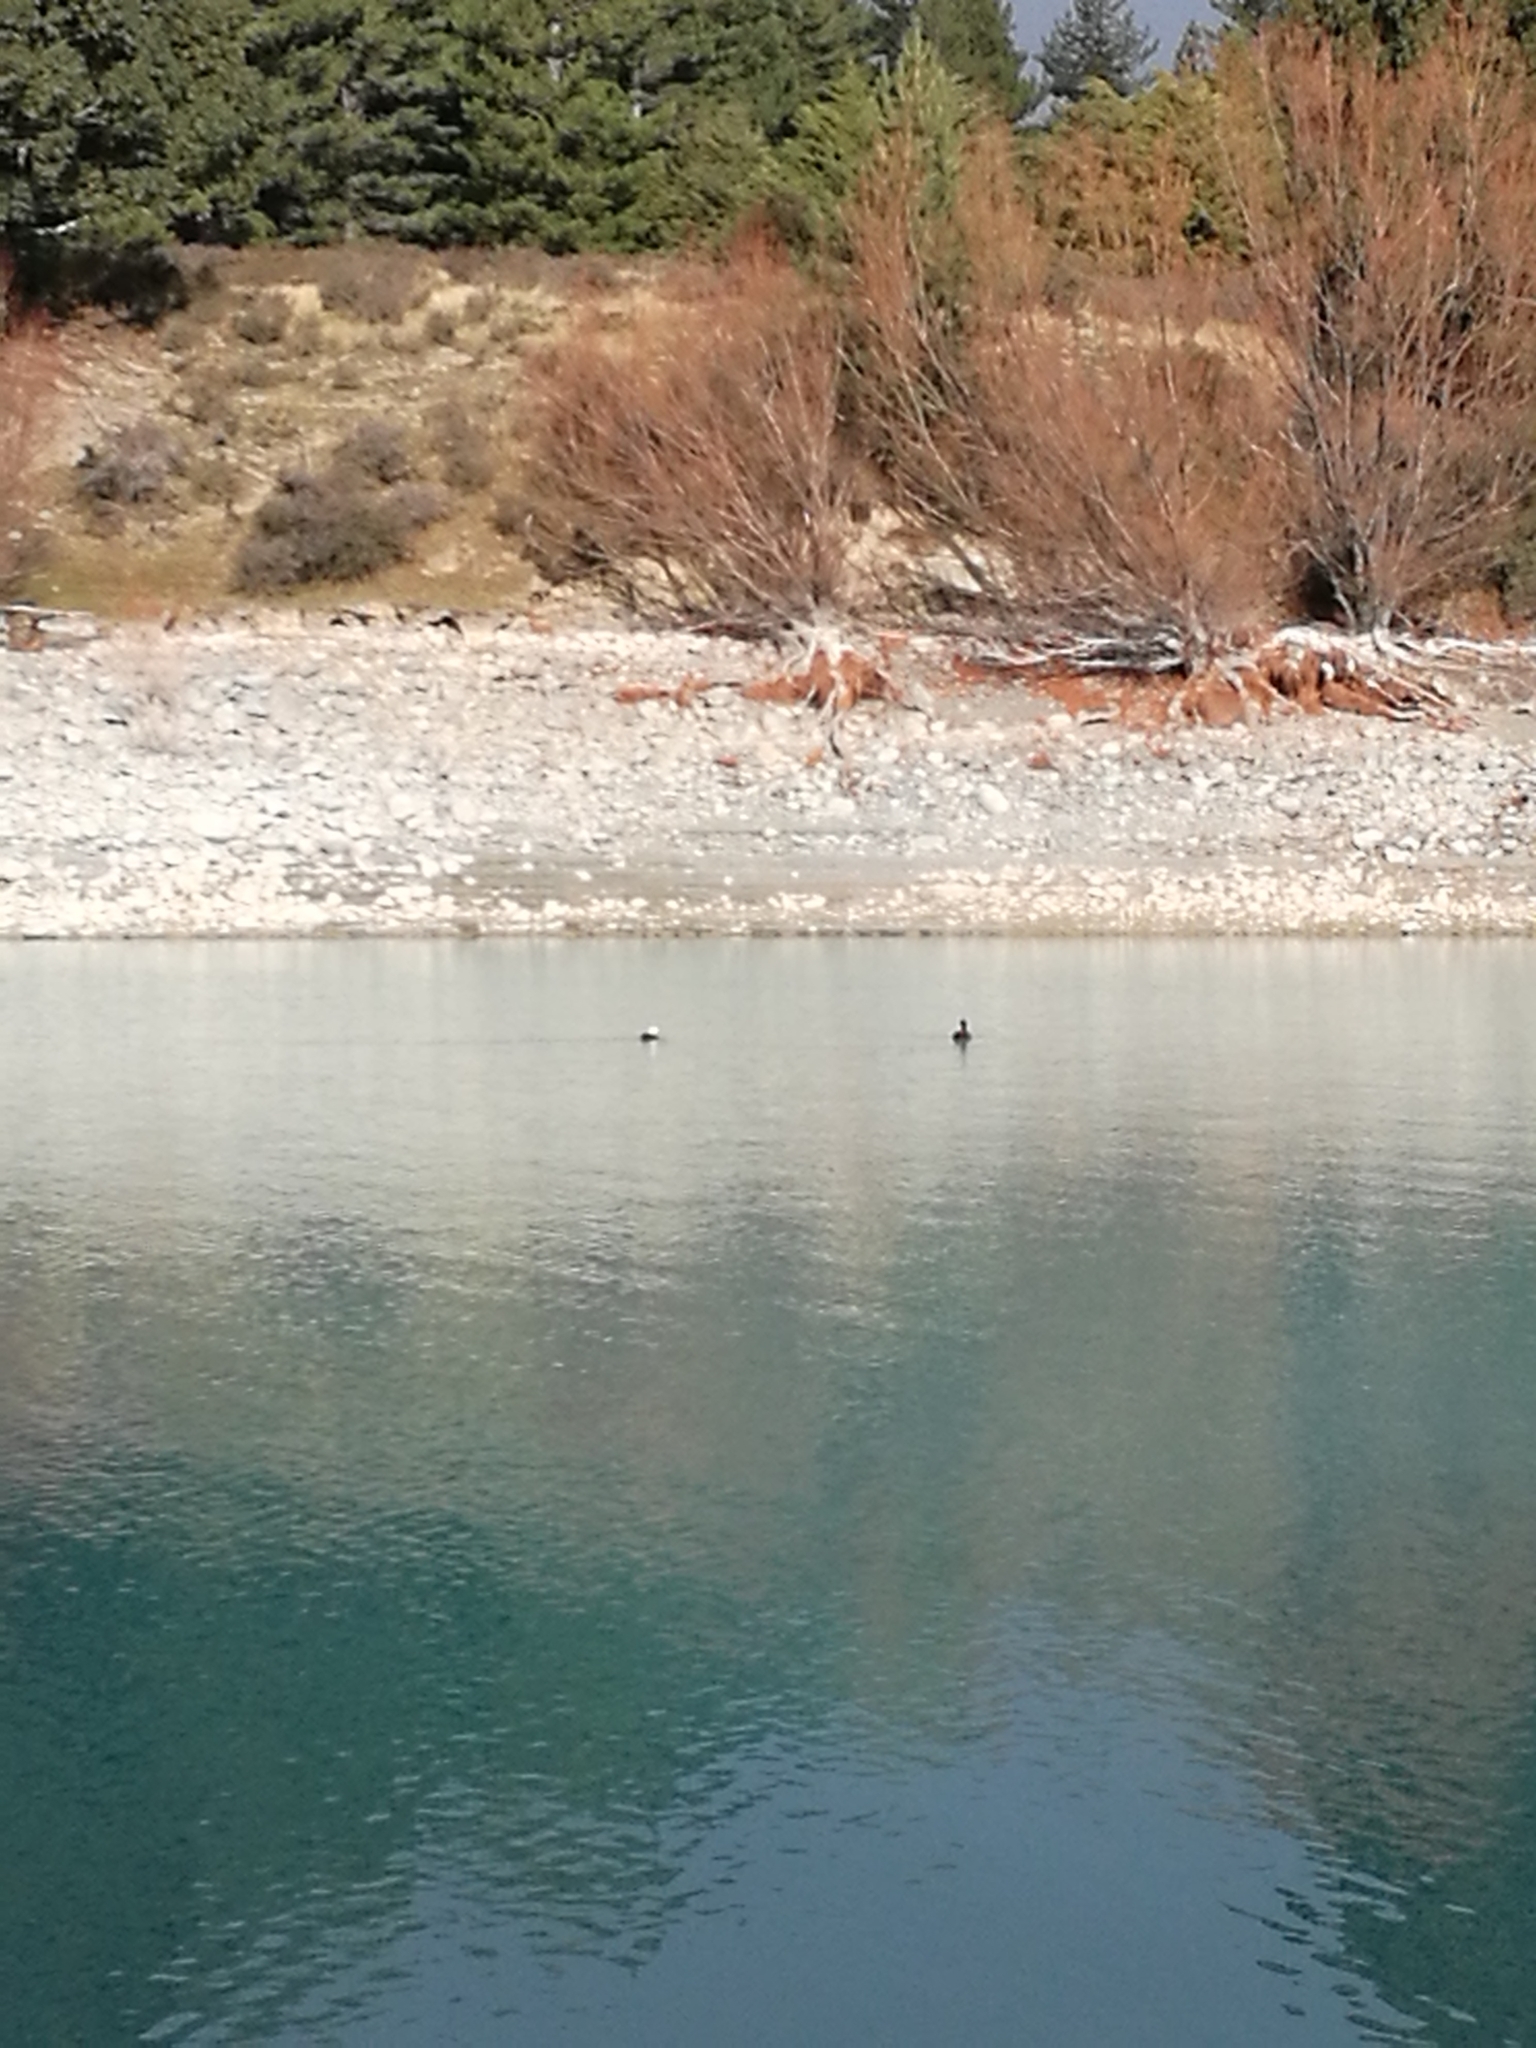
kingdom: Animalia
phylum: Chordata
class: Aves
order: Anseriformes
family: Anatidae
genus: Tadorna
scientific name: Tadorna variegata
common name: Paradise shelduck
